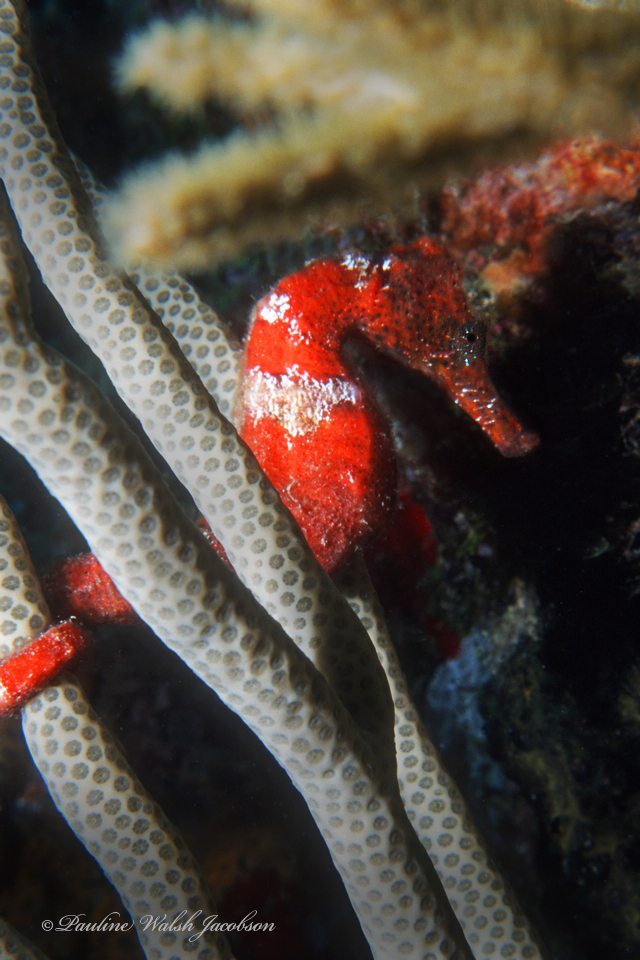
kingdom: Animalia
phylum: Chordata
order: Syngnathiformes
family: Syngnathidae
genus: Hippocampus
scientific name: Hippocampus reidi
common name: Slender seahorse
